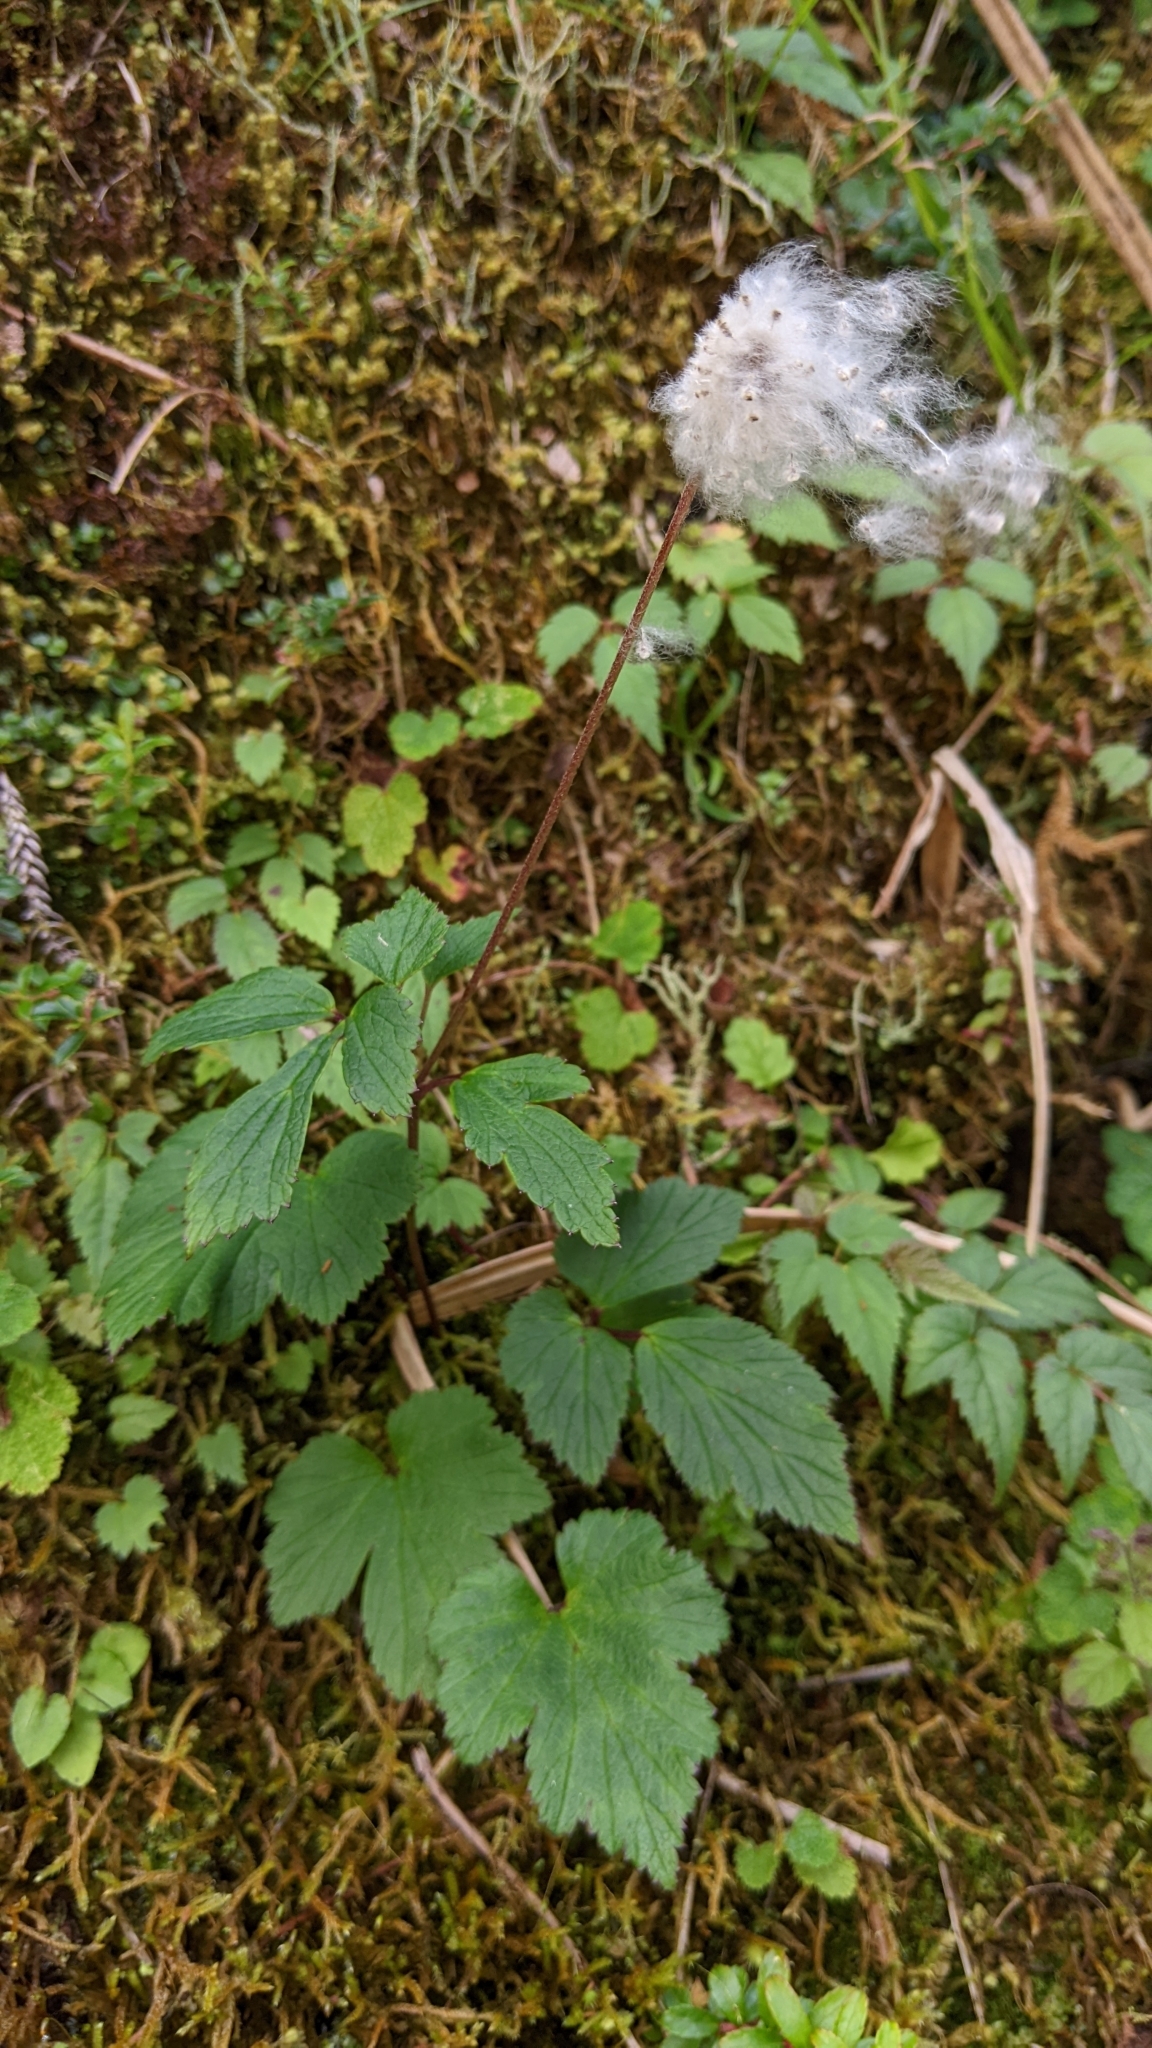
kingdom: Plantae
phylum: Tracheophyta
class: Magnoliopsida
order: Ranunculales
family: Ranunculaceae
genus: Eriocapitella
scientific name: Eriocapitella vitifolia
